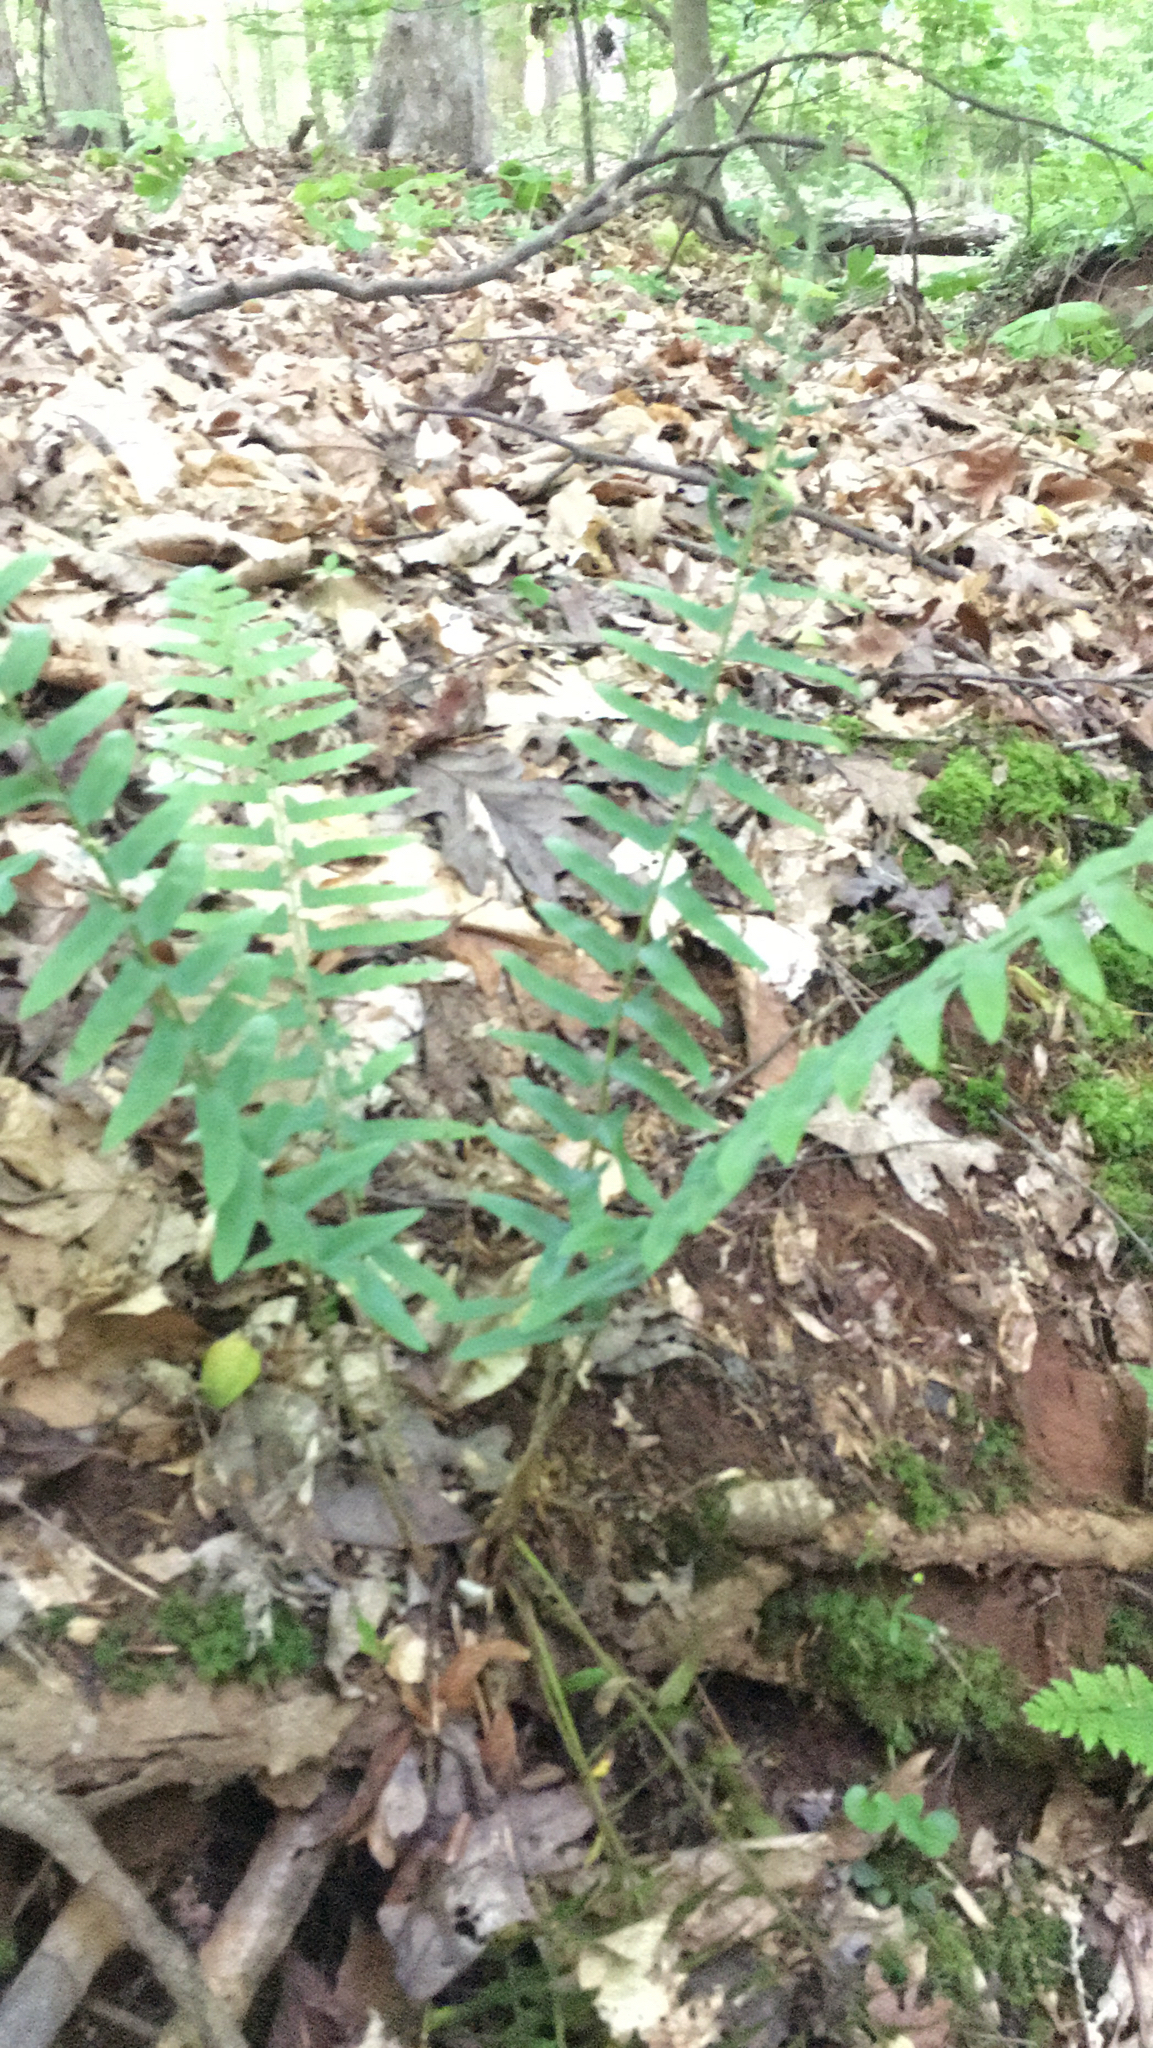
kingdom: Plantae
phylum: Tracheophyta
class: Polypodiopsida
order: Polypodiales
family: Dryopteridaceae
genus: Polystichum
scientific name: Polystichum acrostichoides
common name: Christmas fern
